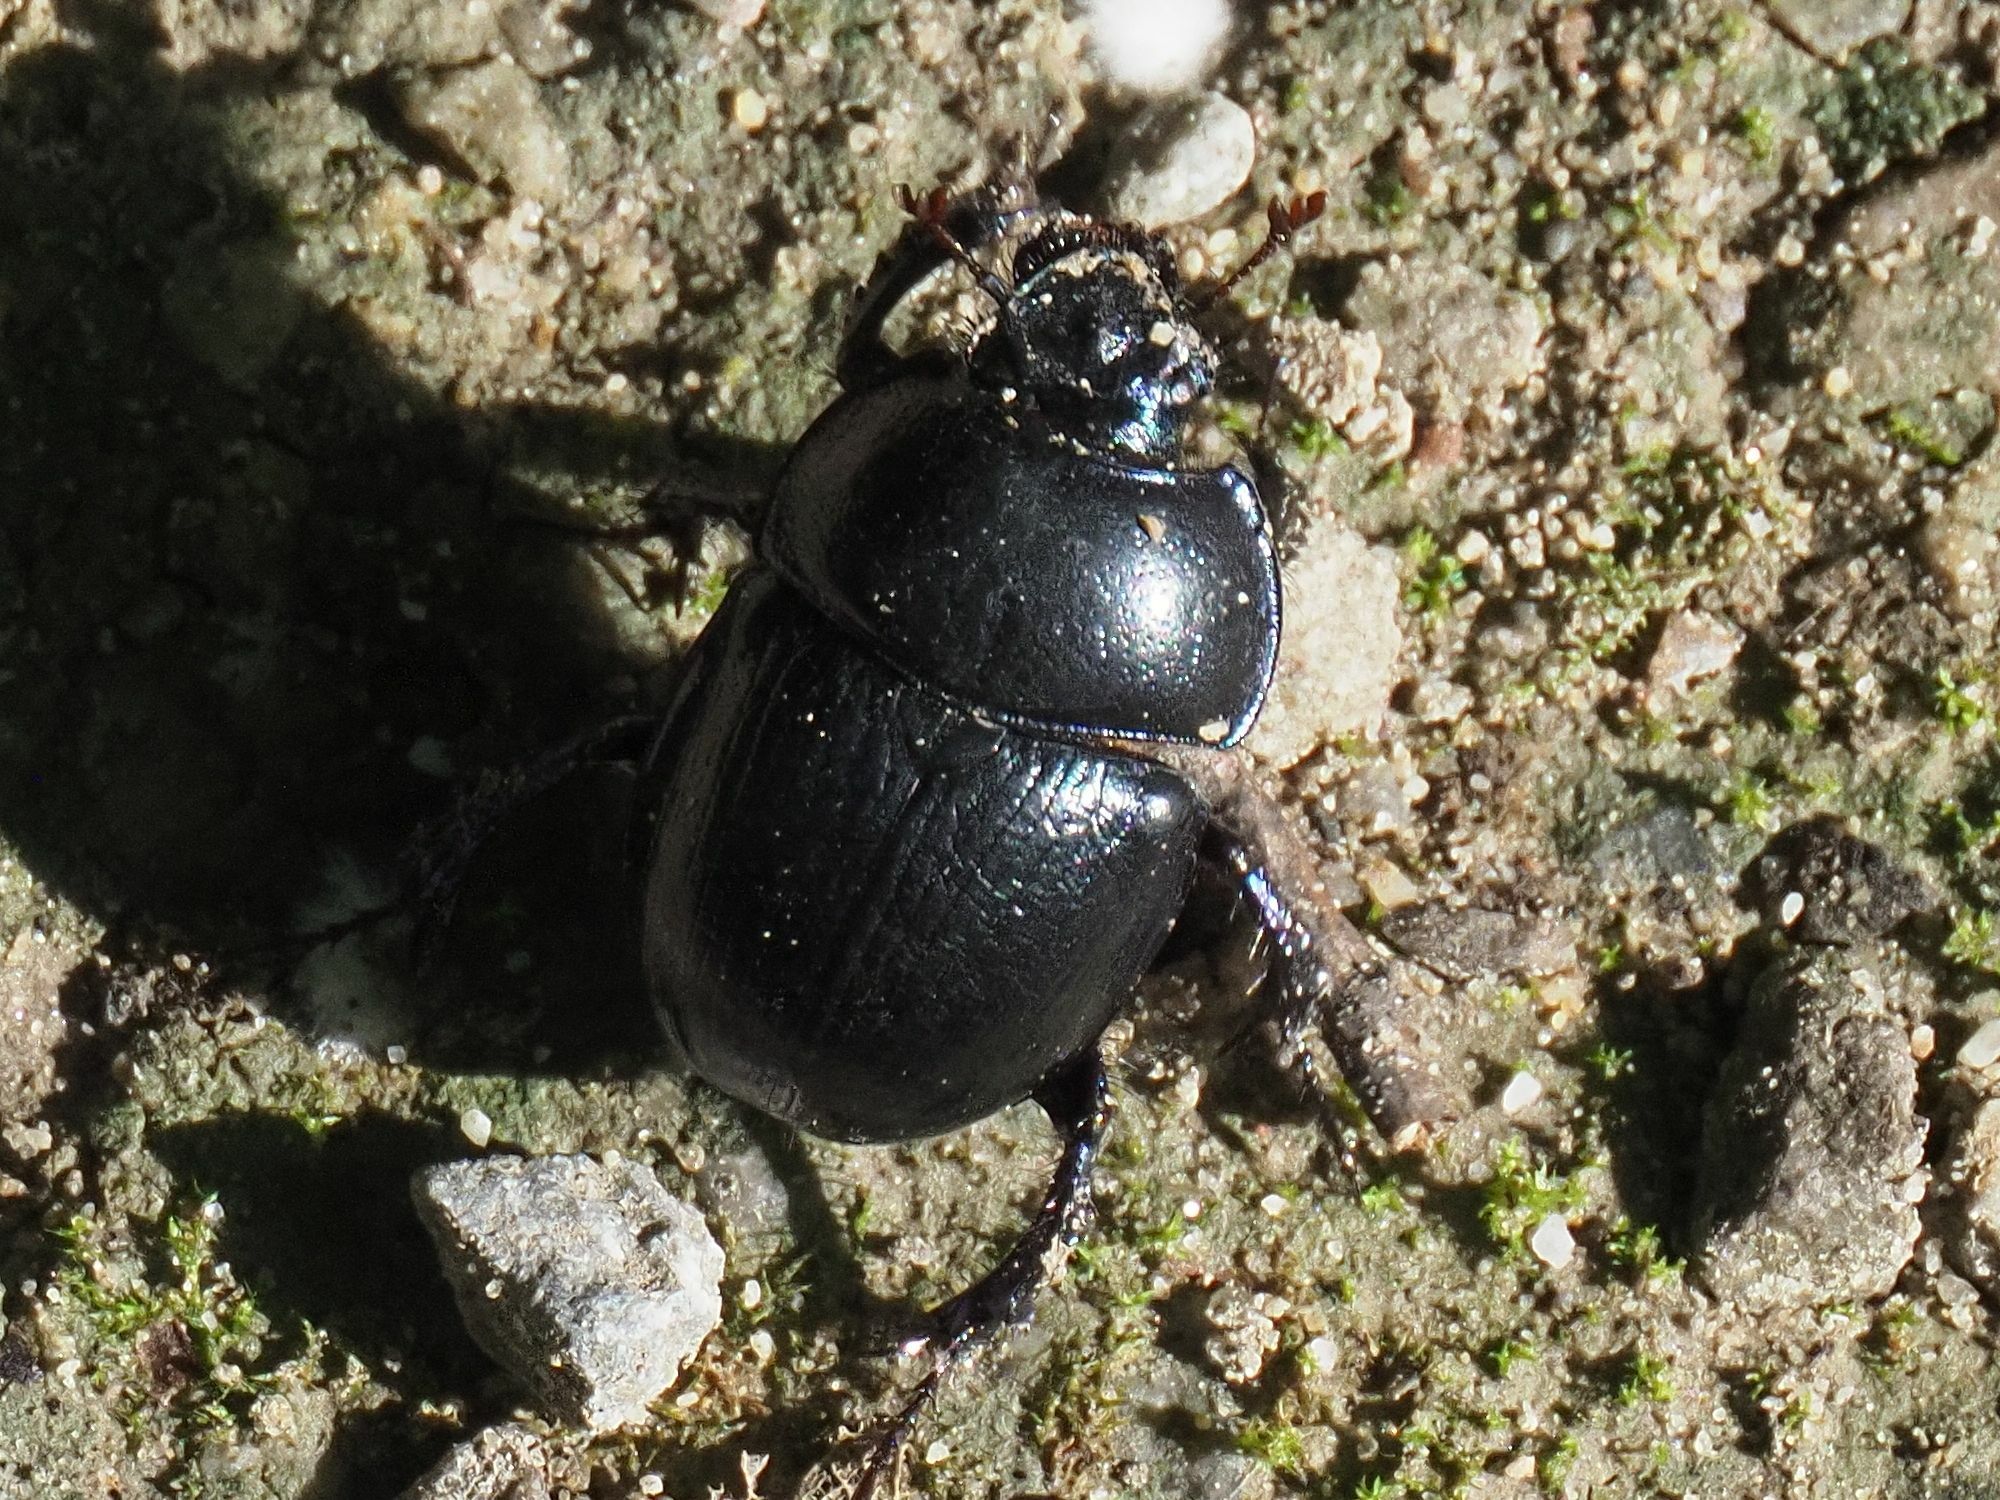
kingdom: Animalia
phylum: Arthropoda
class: Insecta
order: Coleoptera
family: Geotrupidae
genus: Anoplotrupes
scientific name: Anoplotrupes stercorosus
